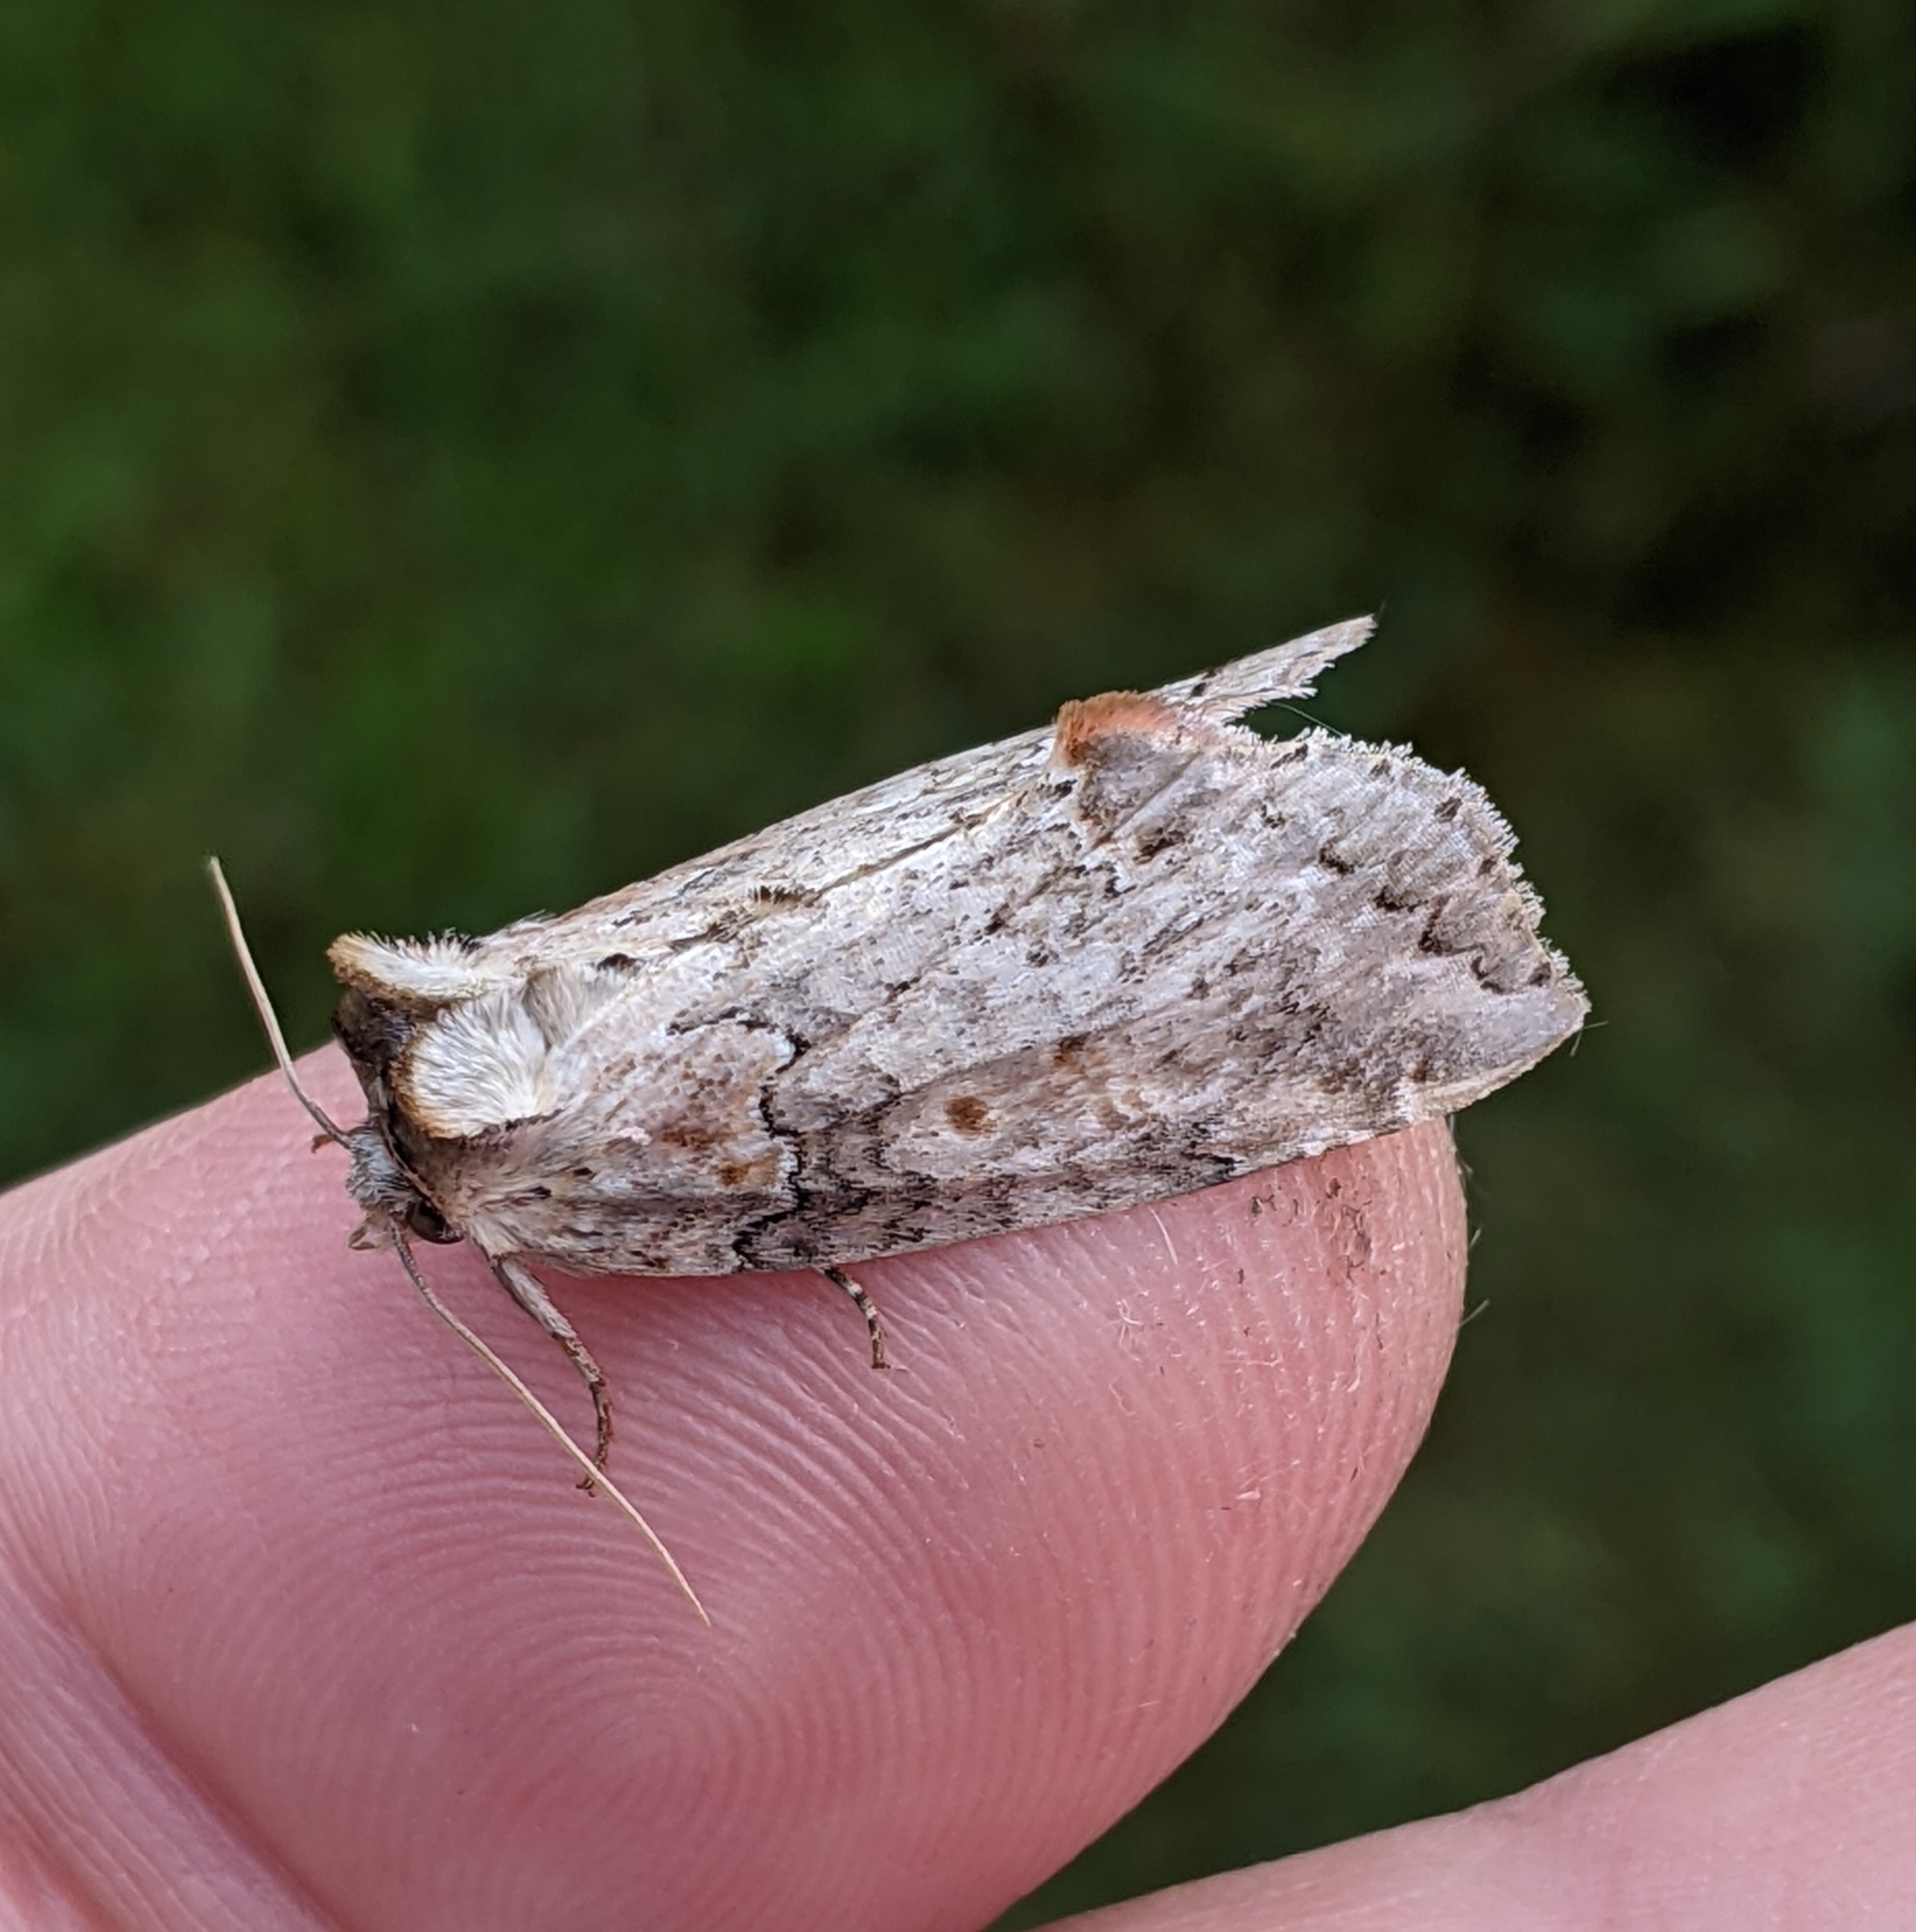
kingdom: Animalia
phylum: Arthropoda
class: Insecta
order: Lepidoptera
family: Drepanidae
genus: Pseudothyatira
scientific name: Pseudothyatira cymatophoroides
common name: Tufted thyatirid moth
